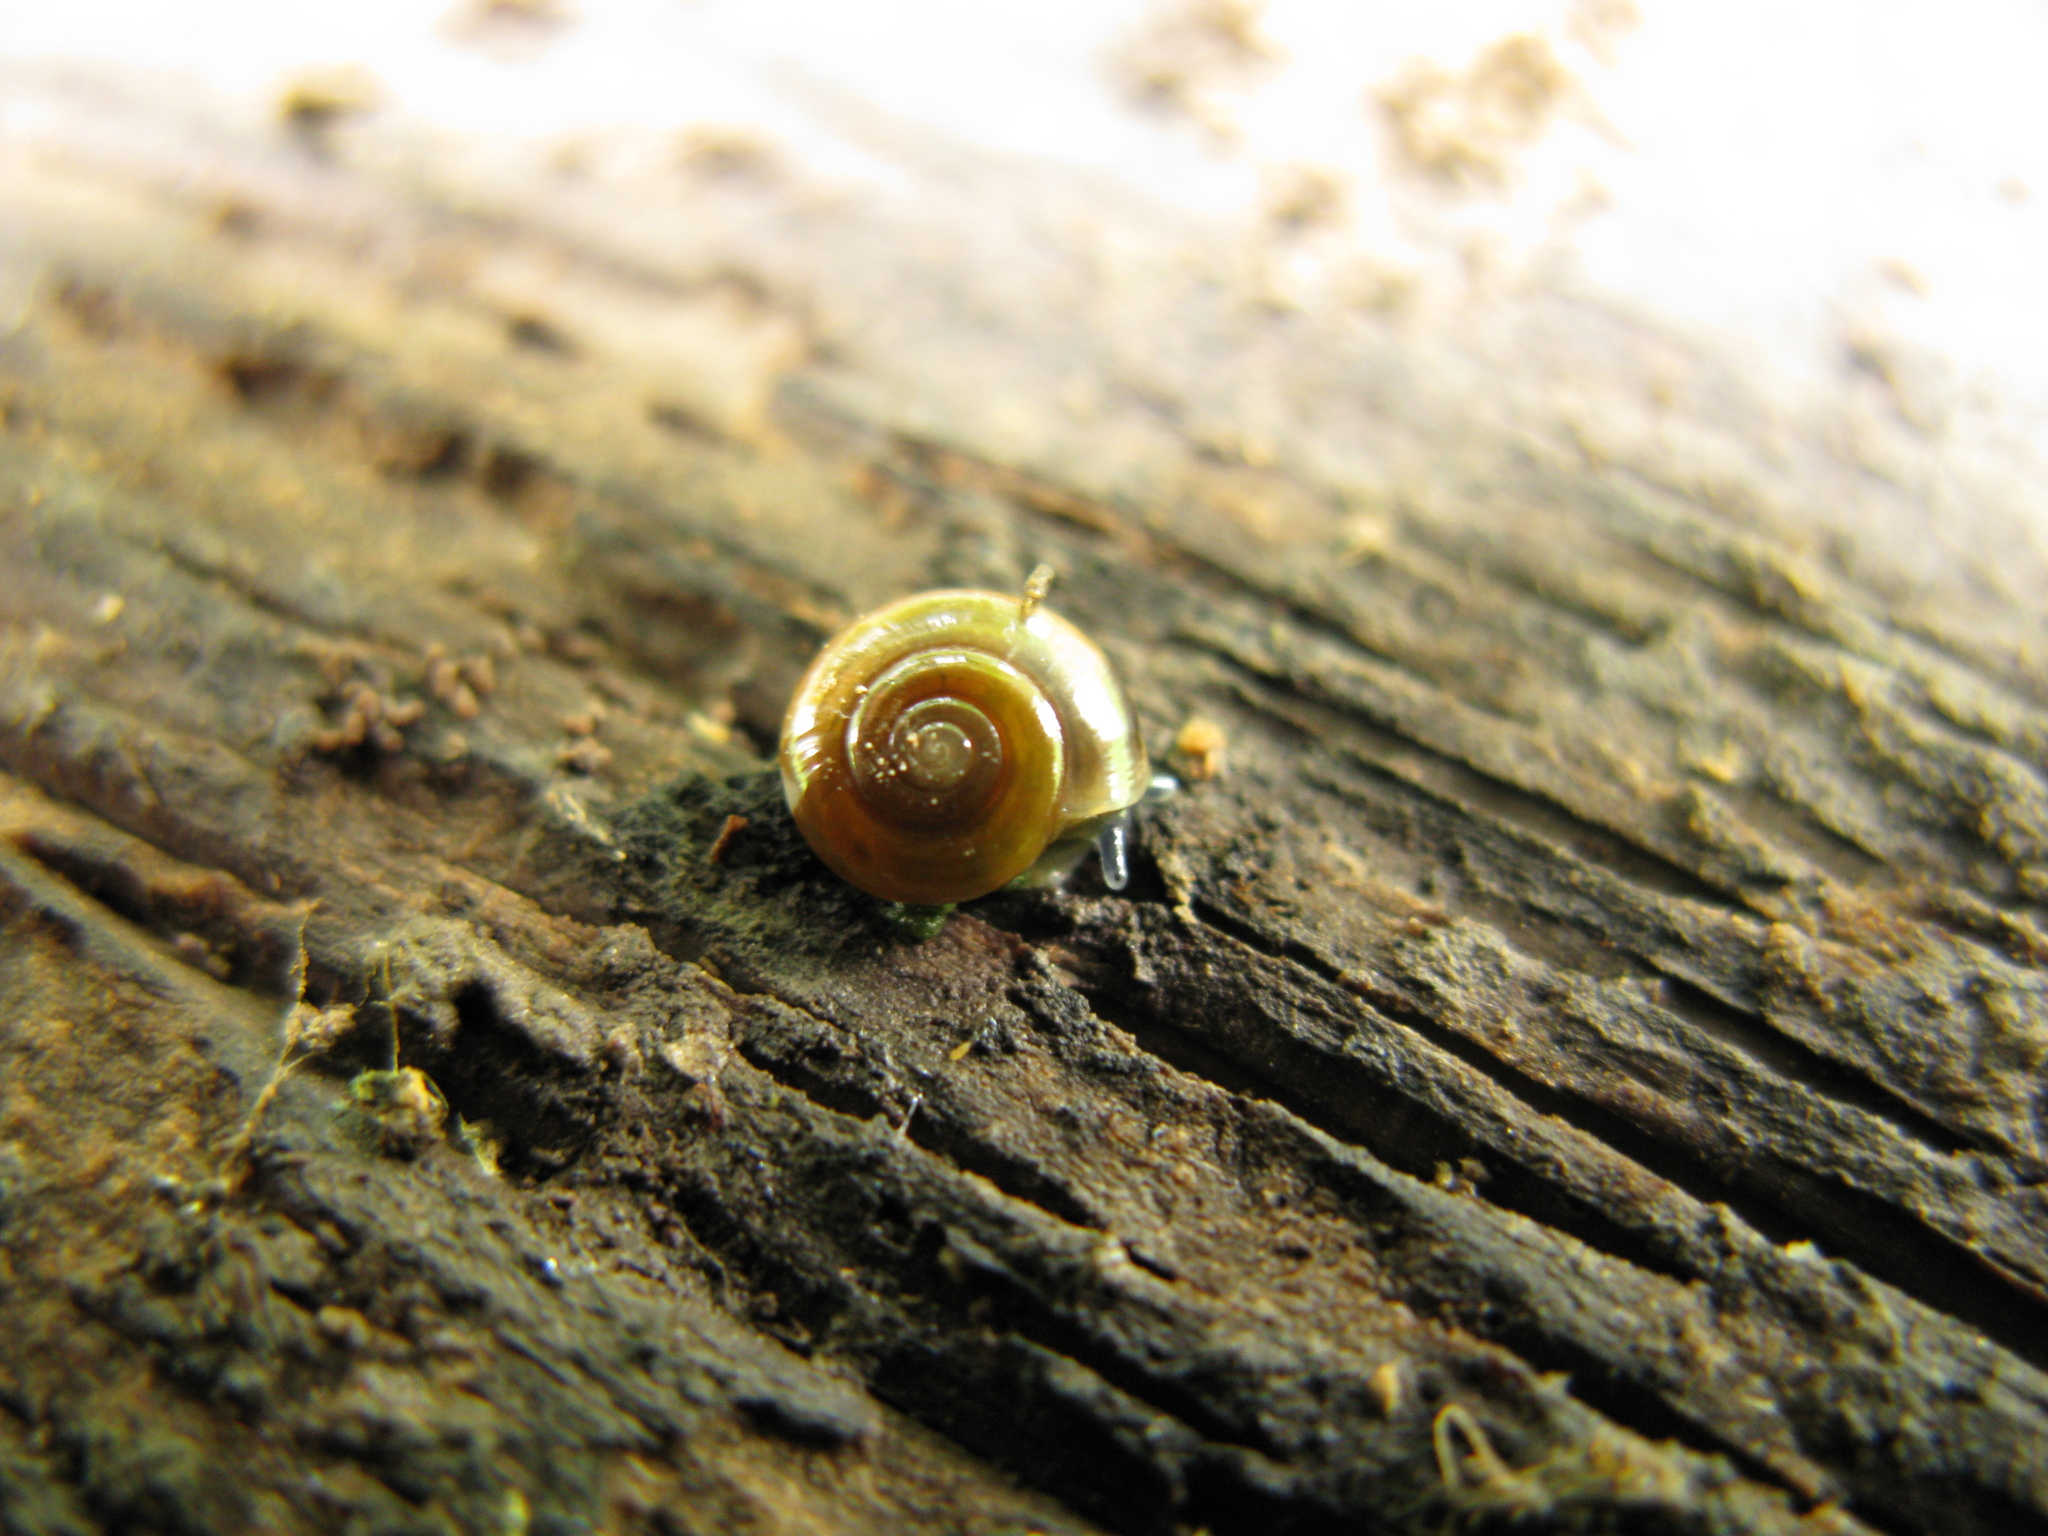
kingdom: Animalia
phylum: Mollusca
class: Gastropoda
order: Stylommatophora
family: Oxychilidae
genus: Oxychilus
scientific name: Oxychilus translucidus
